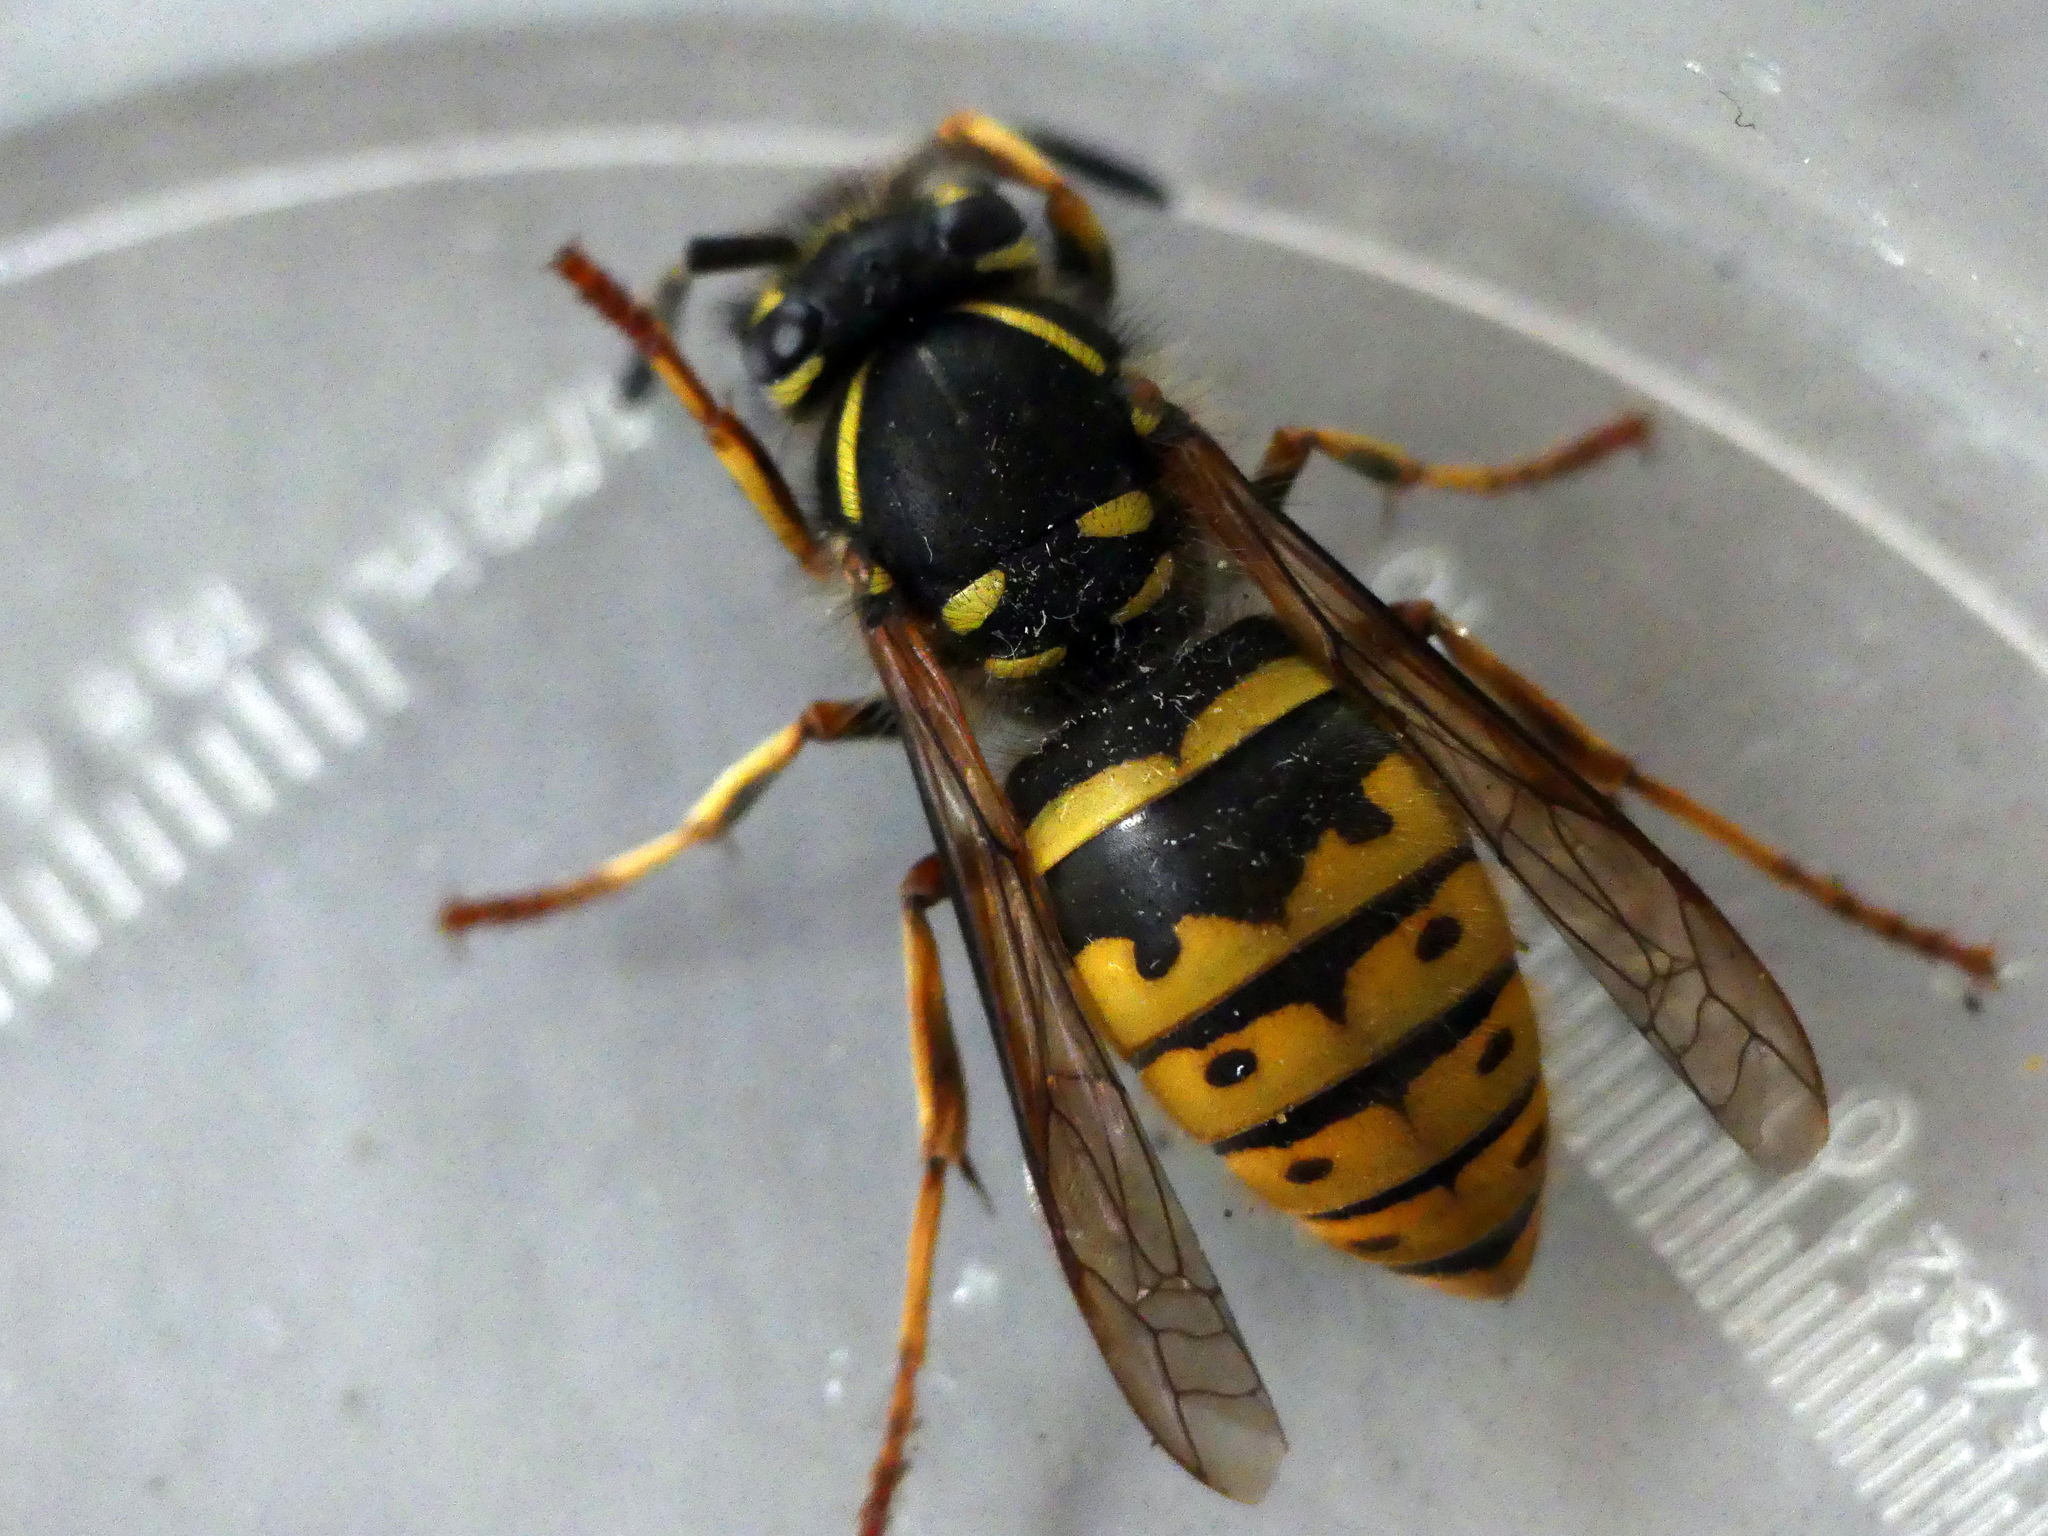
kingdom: Animalia
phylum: Arthropoda
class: Insecta
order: Hymenoptera
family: Vespidae
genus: Vespula
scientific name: Vespula vulgaris
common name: Common wasp
